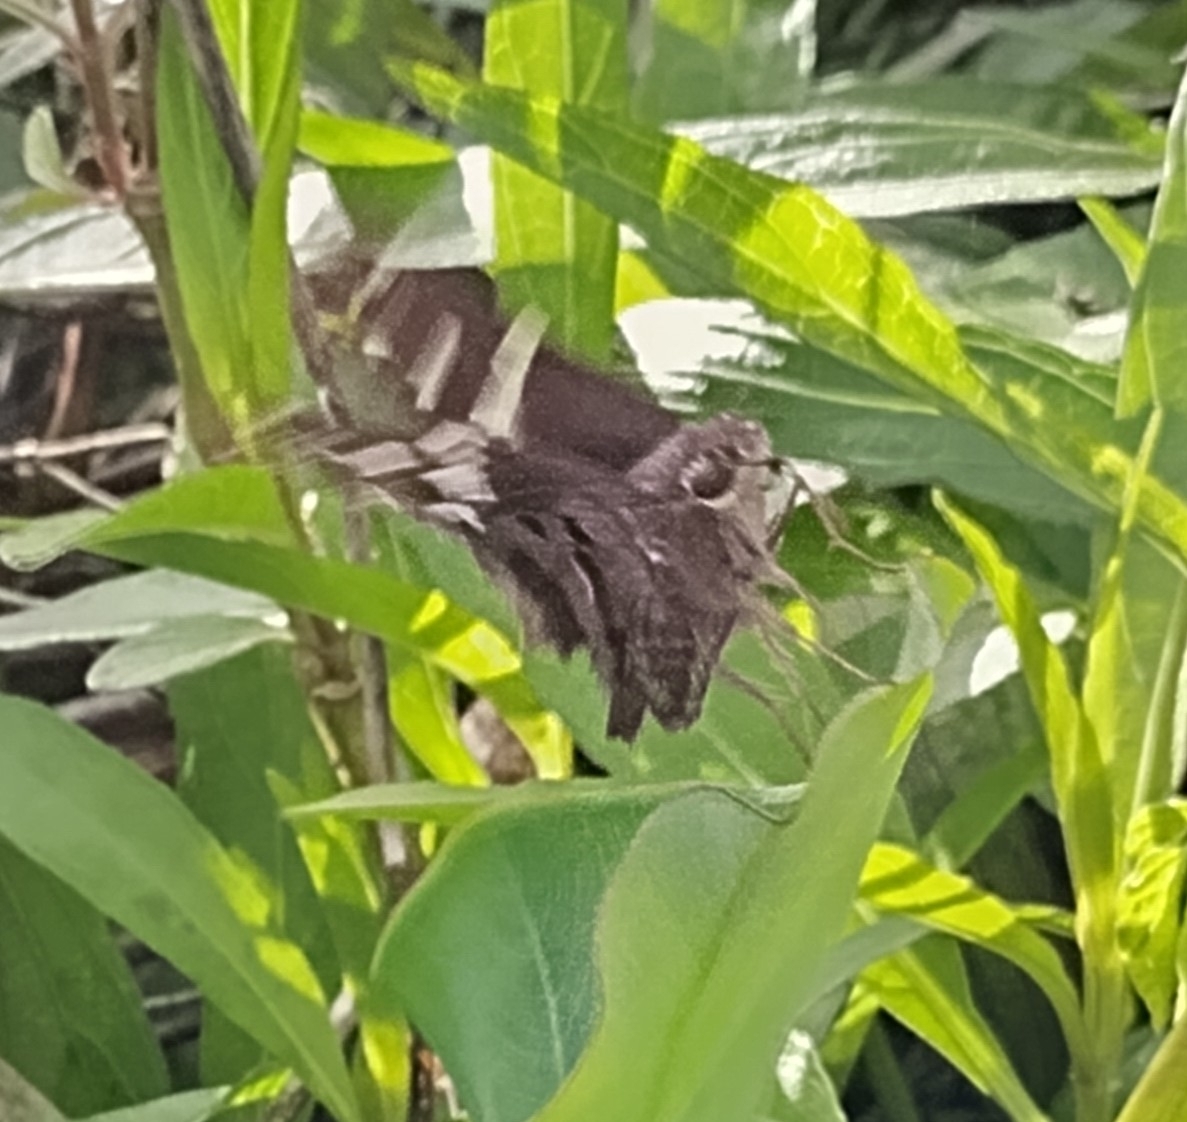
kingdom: Animalia
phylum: Arthropoda
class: Insecta
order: Lepidoptera
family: Hesperiidae
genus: Urbanus
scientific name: Urbanus proteus
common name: Long-tailed skipper
